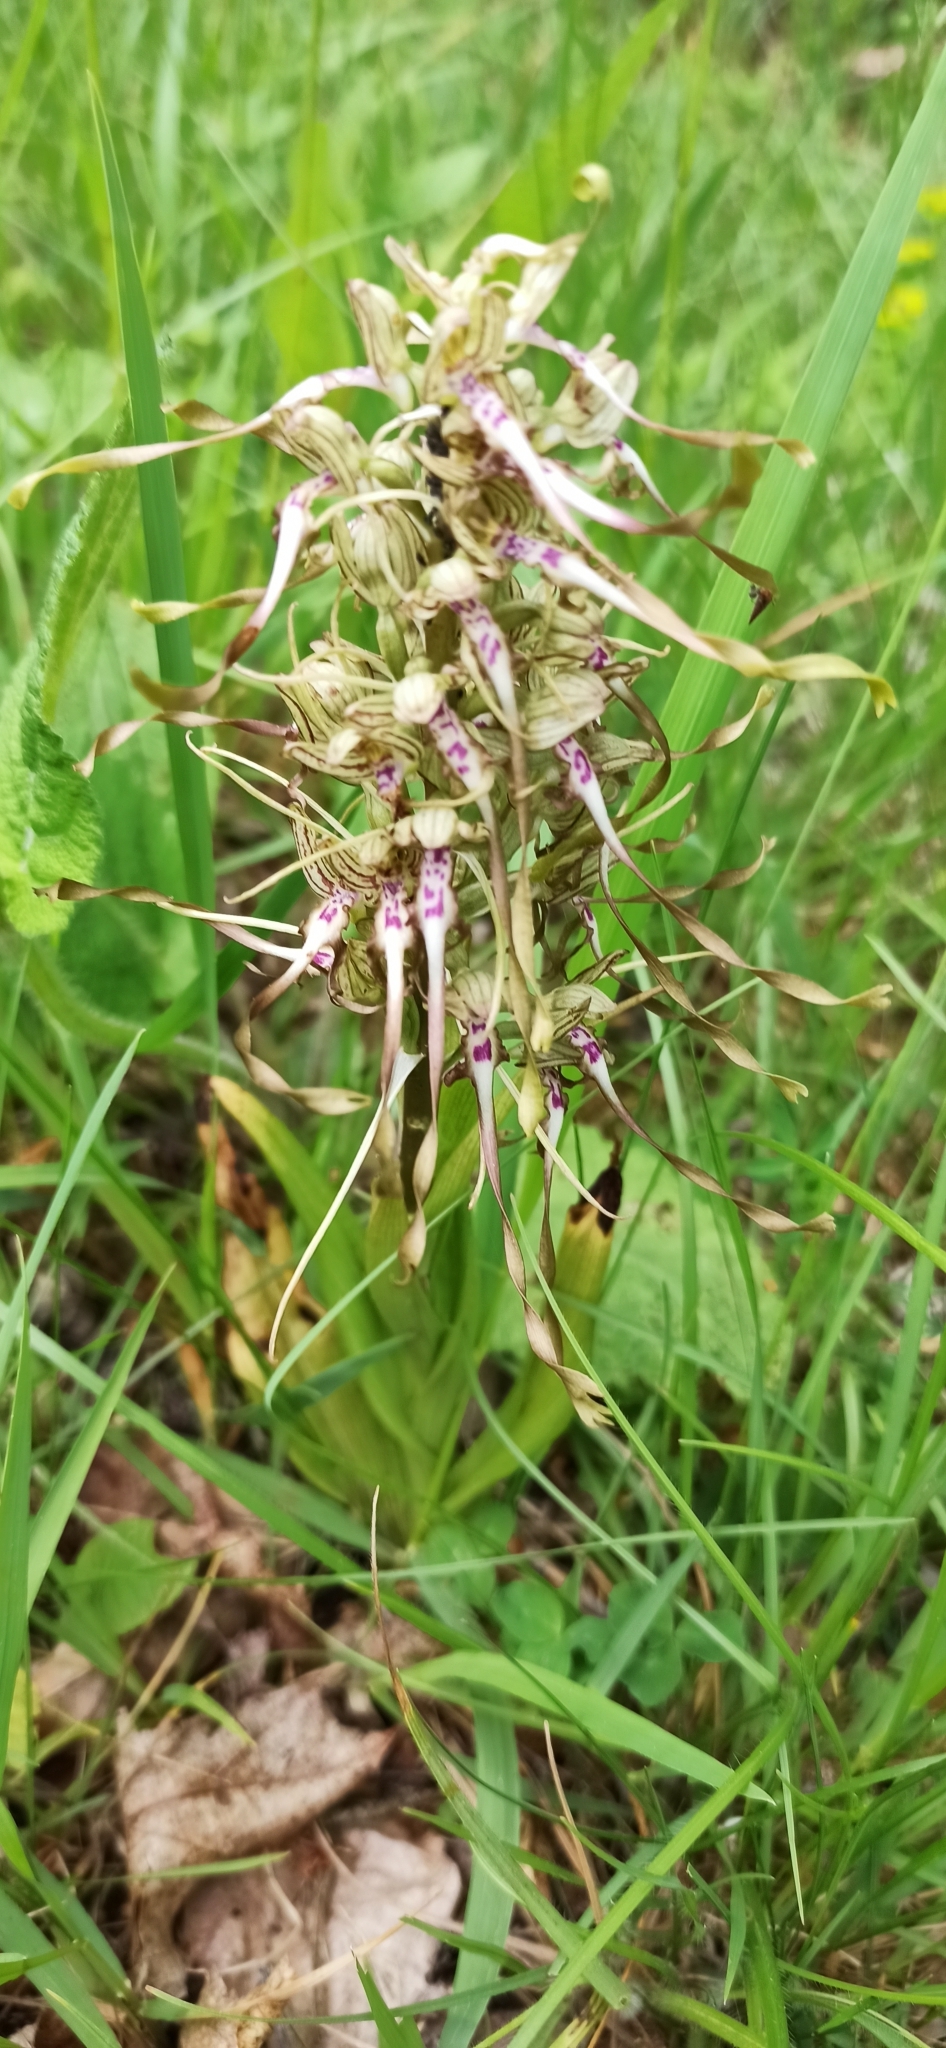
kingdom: Plantae
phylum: Tracheophyta
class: Liliopsida
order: Asparagales
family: Orchidaceae
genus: Himantoglossum
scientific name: Himantoglossum hircinum
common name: Lizard orchid
